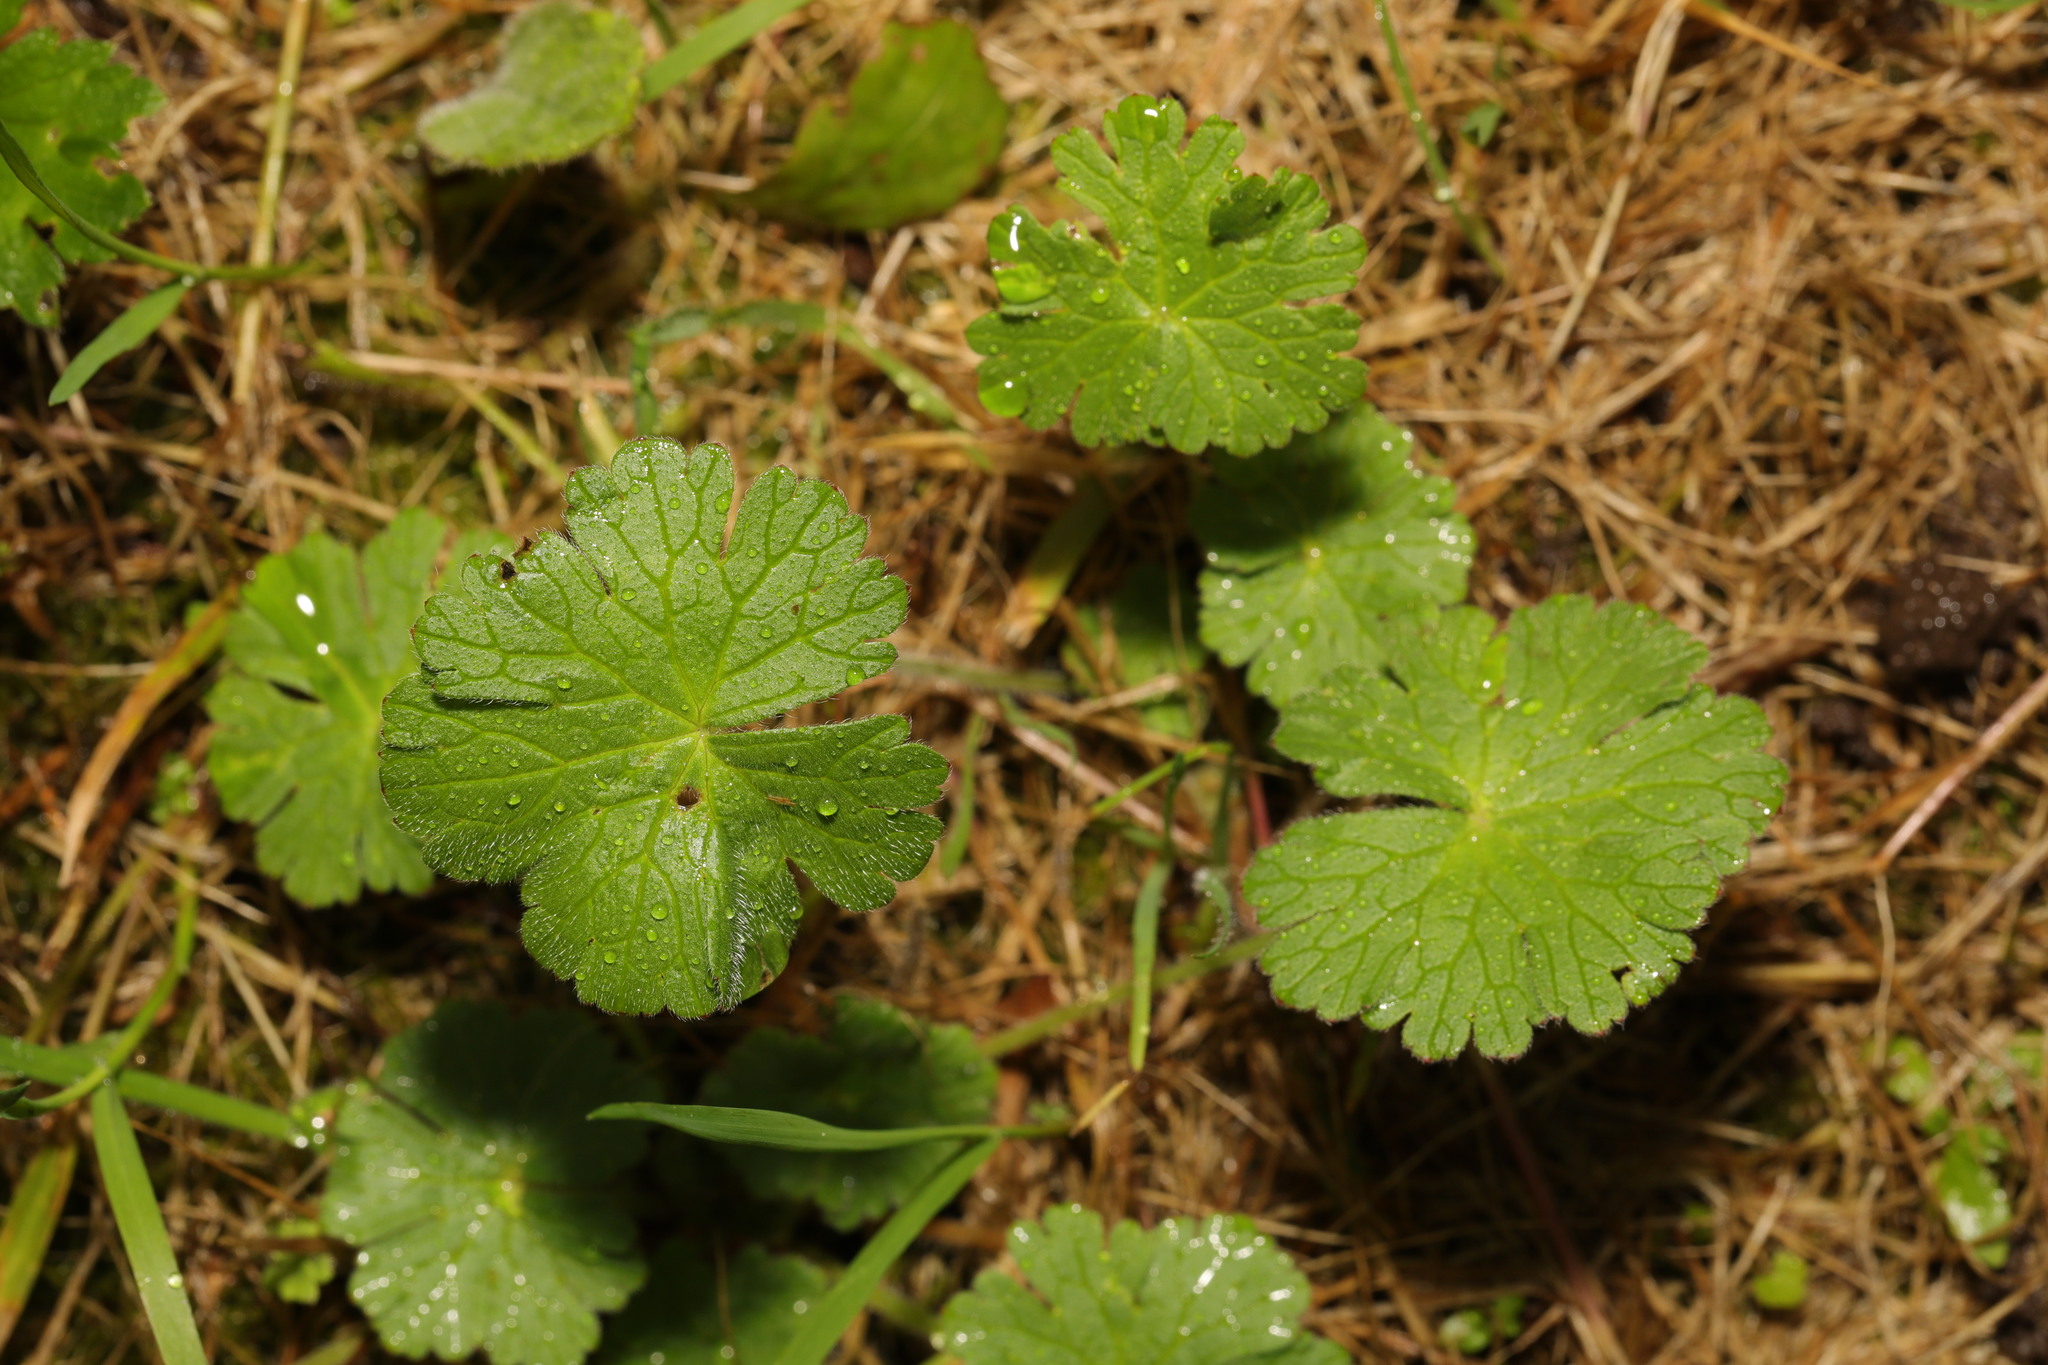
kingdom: Plantae
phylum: Tracheophyta
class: Magnoliopsida
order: Geraniales
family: Geraniaceae
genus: Geranium
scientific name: Geranium molle
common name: Dove's-foot crane's-bill
